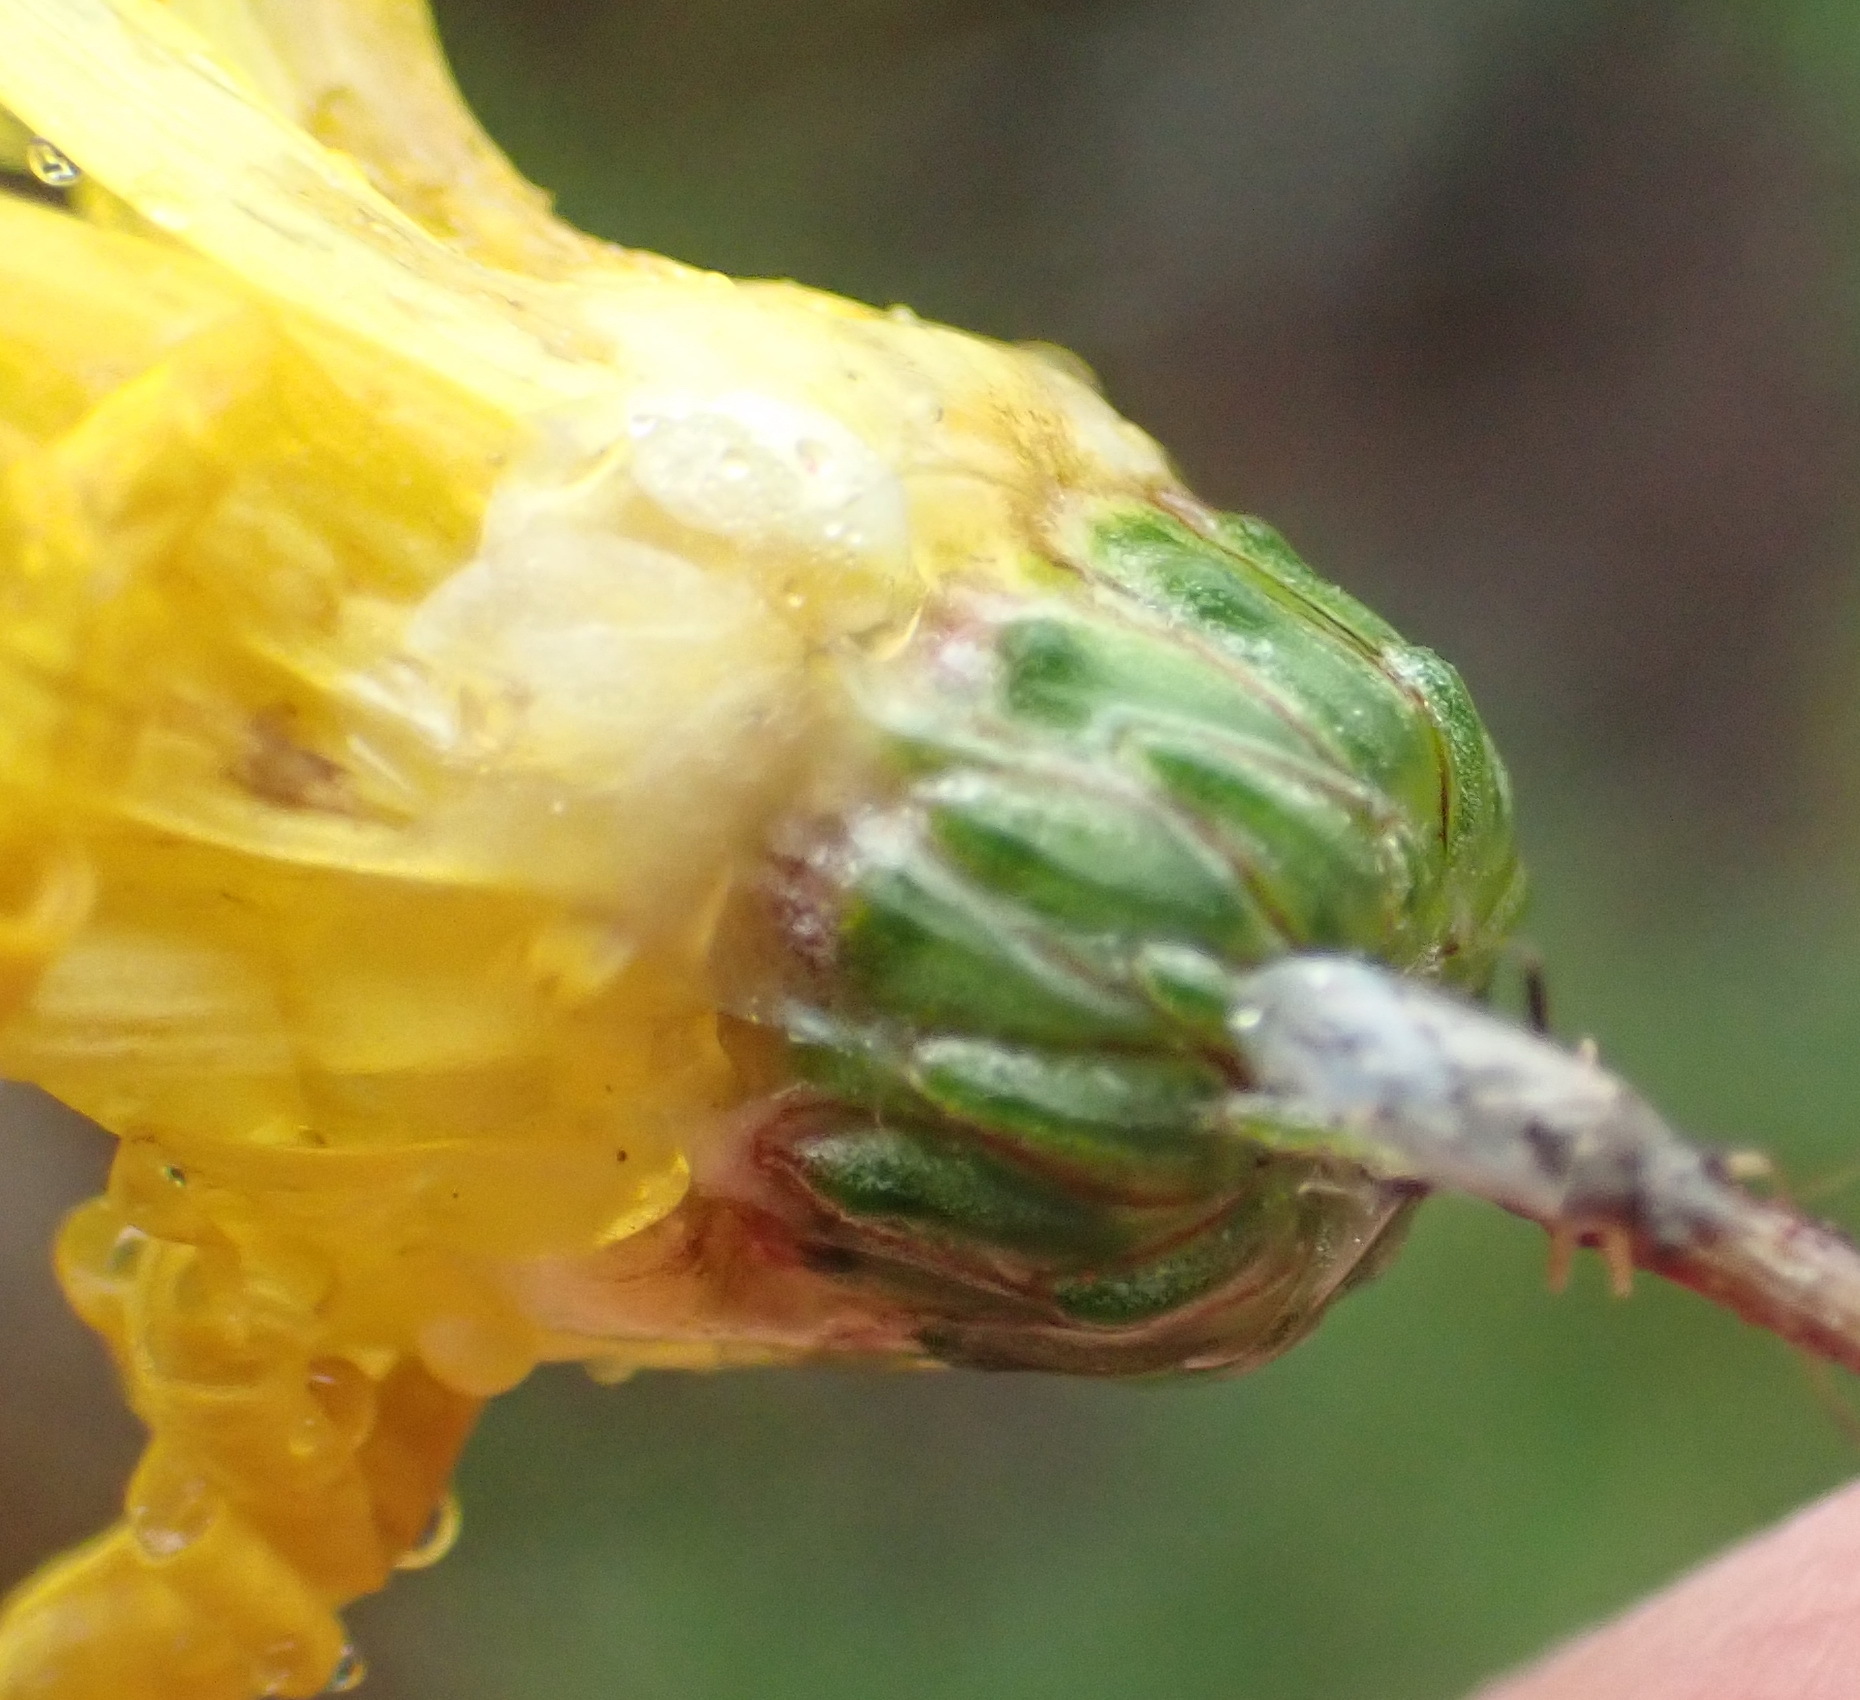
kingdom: Plantae
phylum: Tracheophyta
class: Magnoliopsida
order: Asterales
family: Asteraceae
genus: Ursinia
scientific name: Ursinia paleacea
